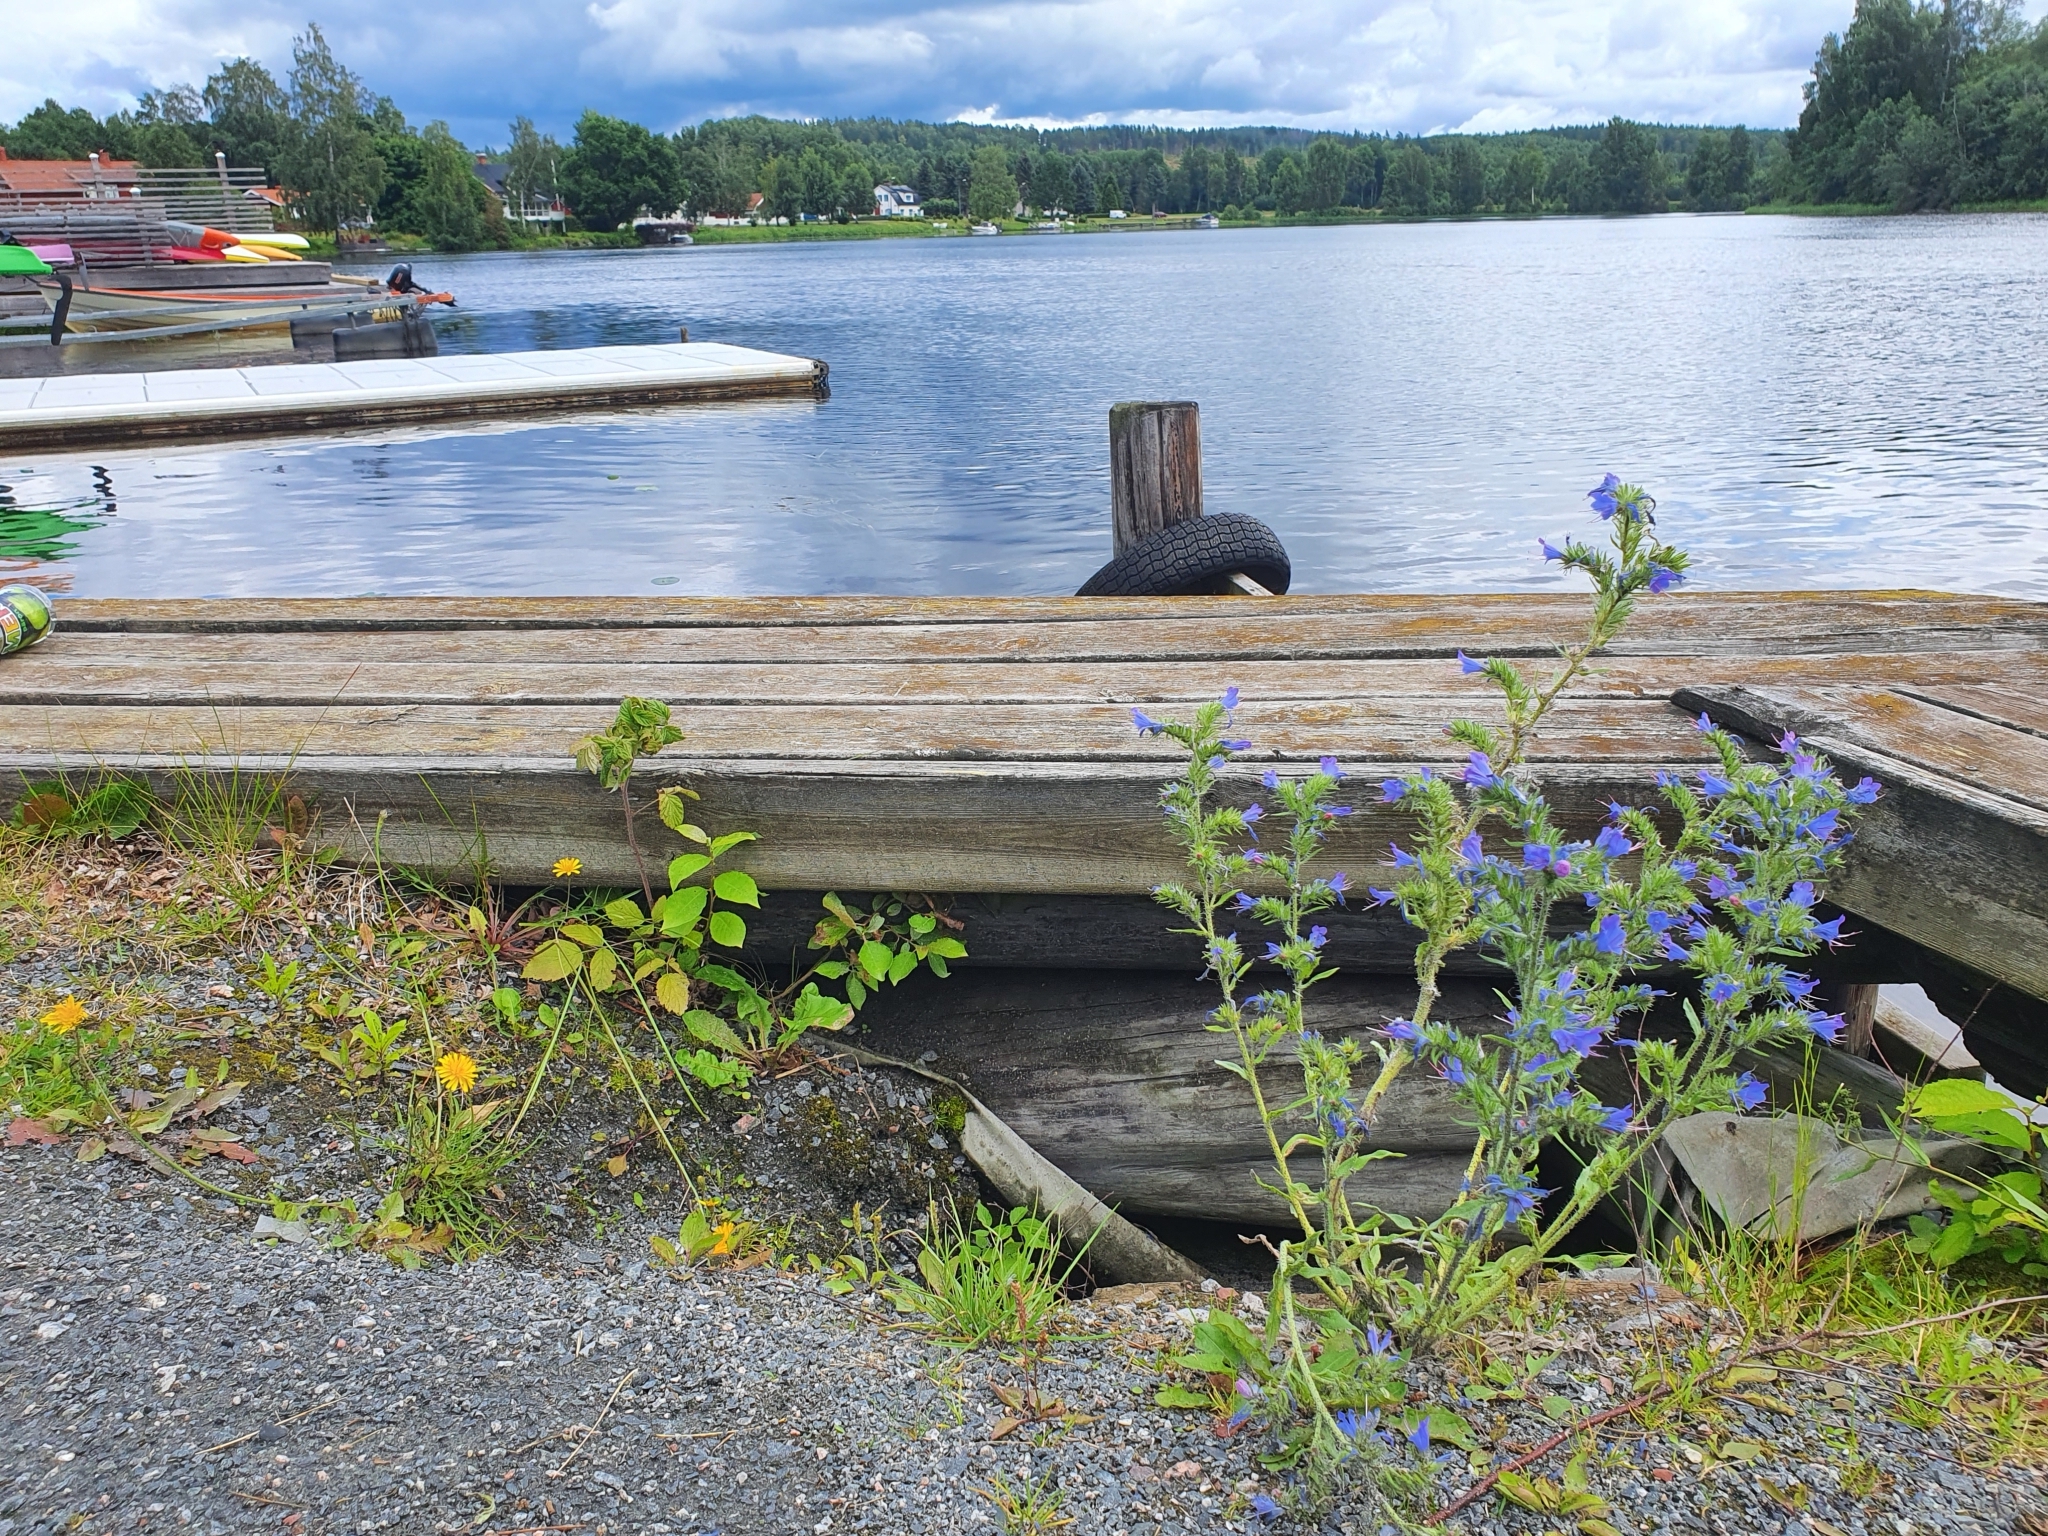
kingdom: Plantae
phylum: Tracheophyta
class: Magnoliopsida
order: Boraginales
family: Boraginaceae
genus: Echium
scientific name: Echium vulgare
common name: Common viper's bugloss
